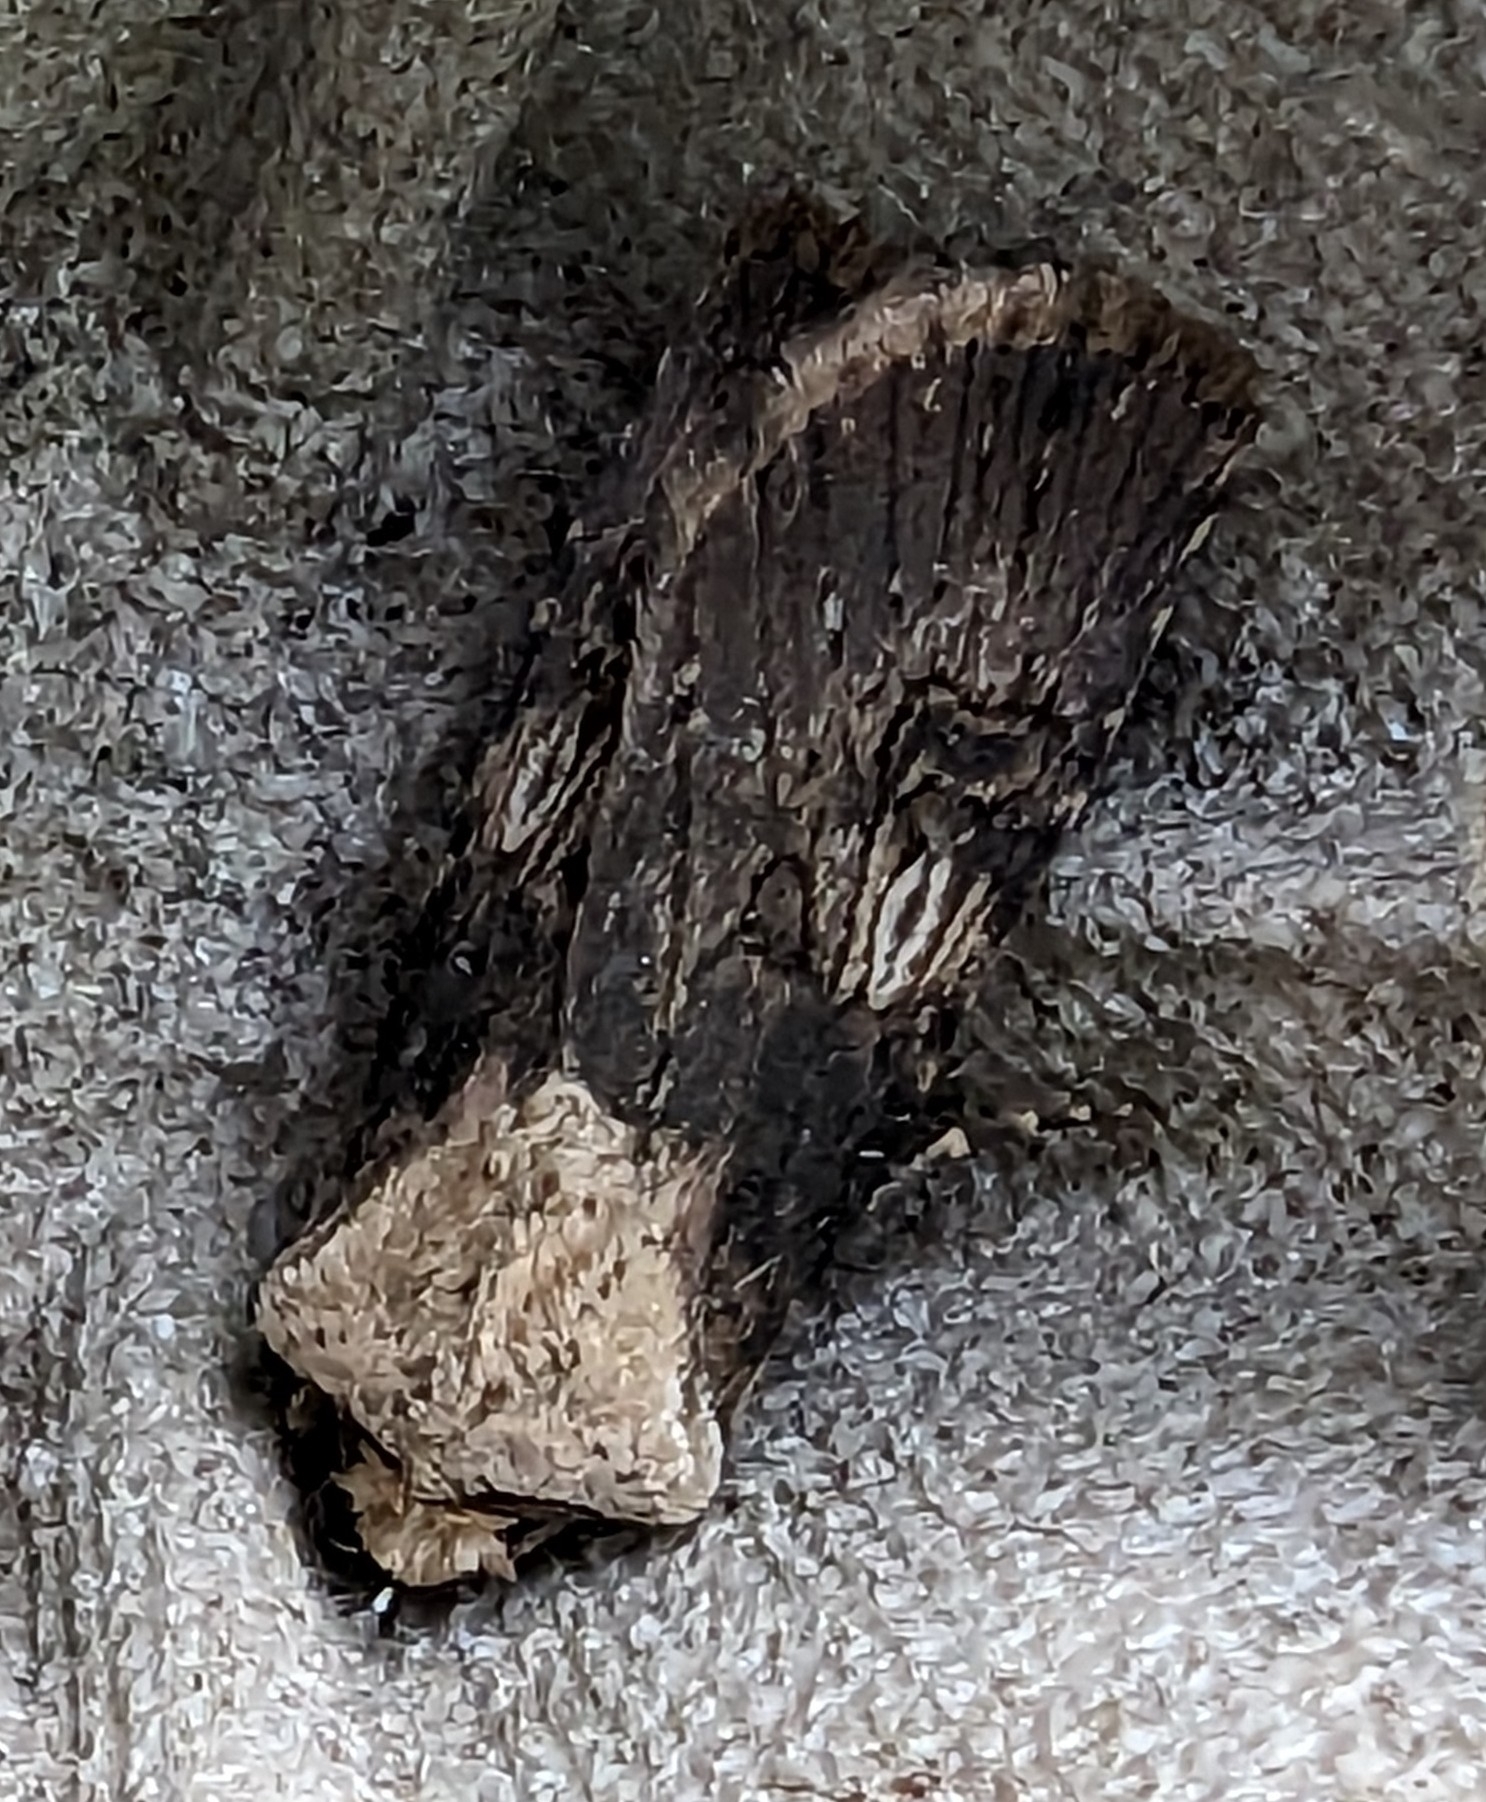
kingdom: Animalia
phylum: Arthropoda
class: Insecta
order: Lepidoptera
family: Noctuidae
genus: Agrotis
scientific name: Agrotis puta
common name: Shuttle-shaped dart
